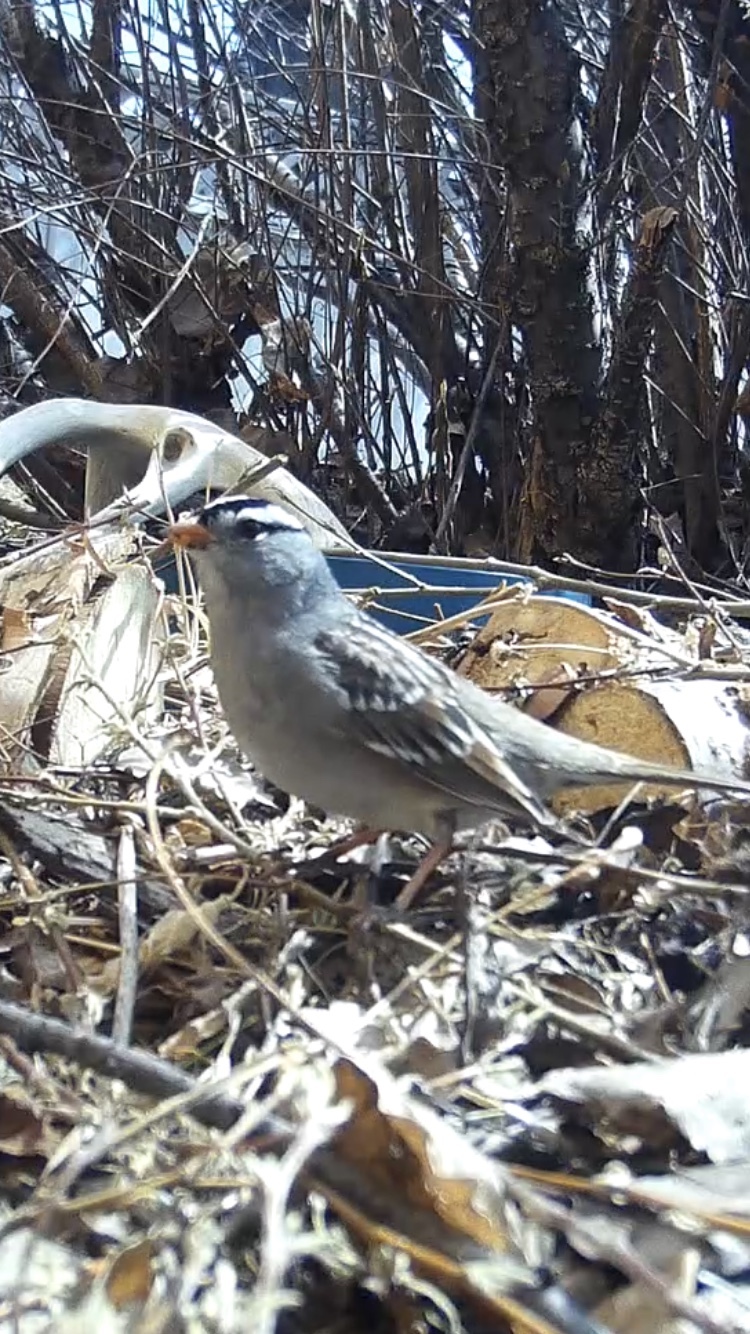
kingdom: Animalia
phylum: Chordata
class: Aves
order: Passeriformes
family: Passerellidae
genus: Zonotrichia
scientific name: Zonotrichia leucophrys
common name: White-crowned sparrow
